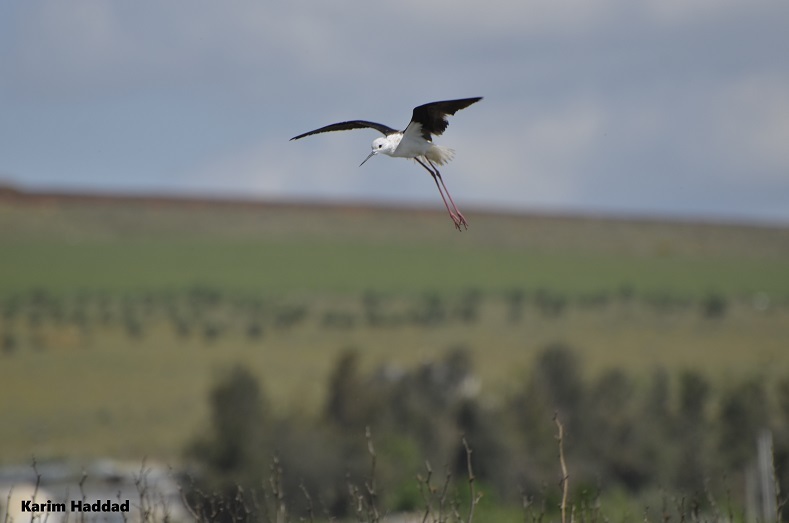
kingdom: Animalia
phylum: Chordata
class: Aves
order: Charadriiformes
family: Recurvirostridae
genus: Himantopus
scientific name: Himantopus himantopus
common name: Black-winged stilt
